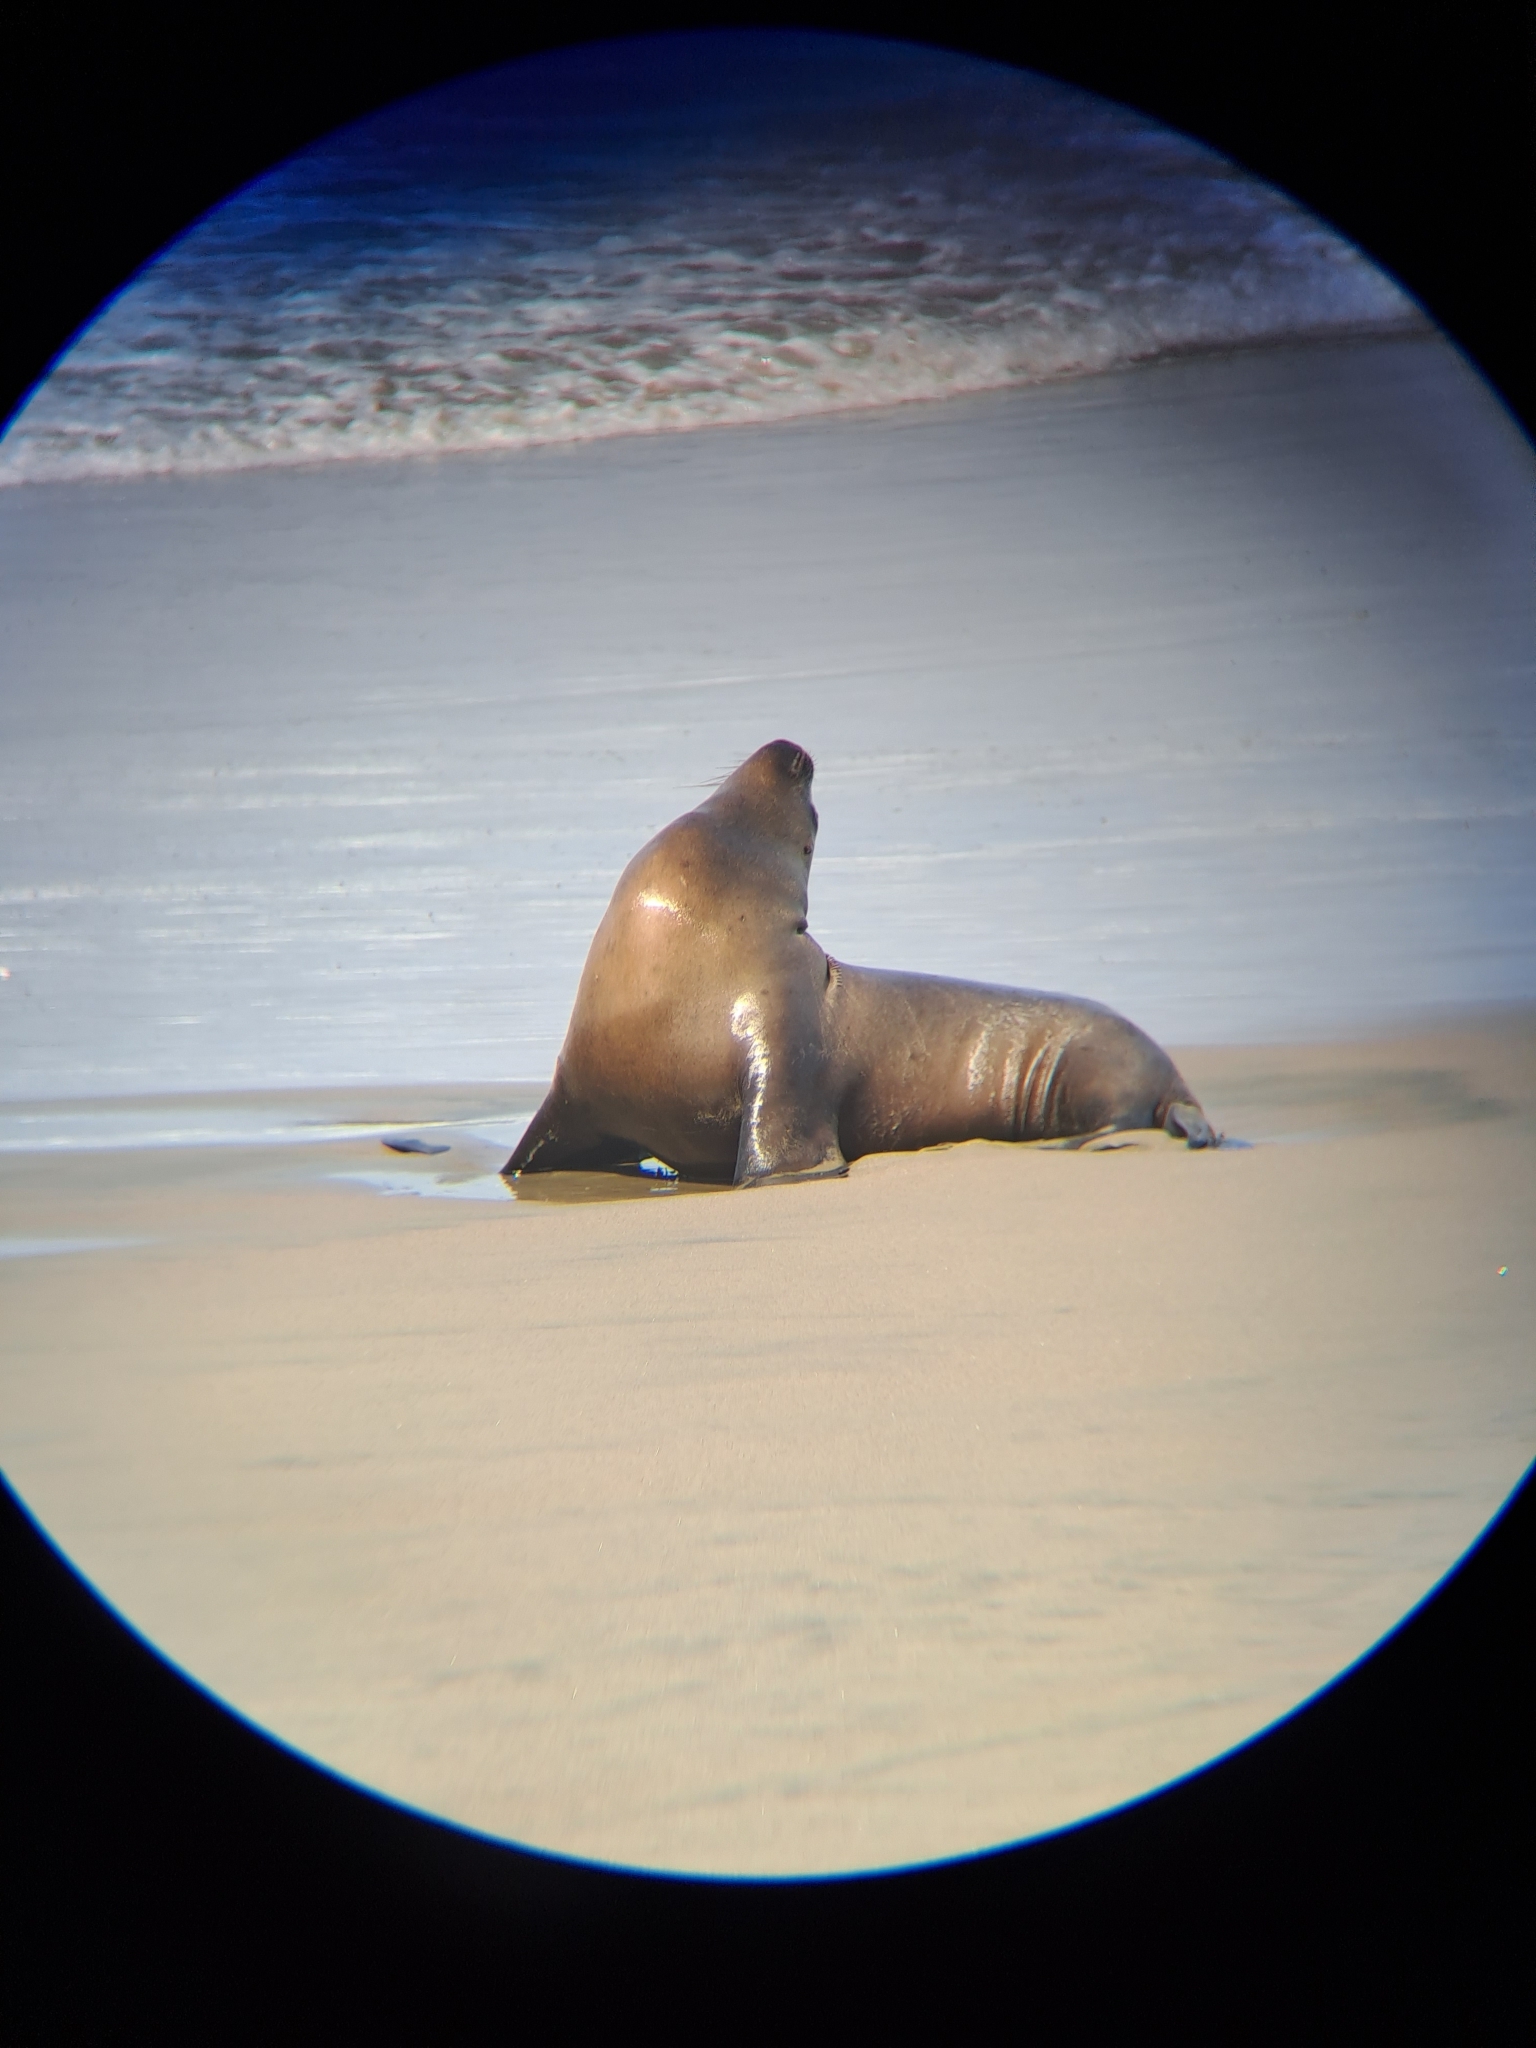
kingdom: Animalia
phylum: Chordata
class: Mammalia
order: Carnivora
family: Otariidae
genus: Otaria
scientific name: Otaria byronia
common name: South american sea lion
